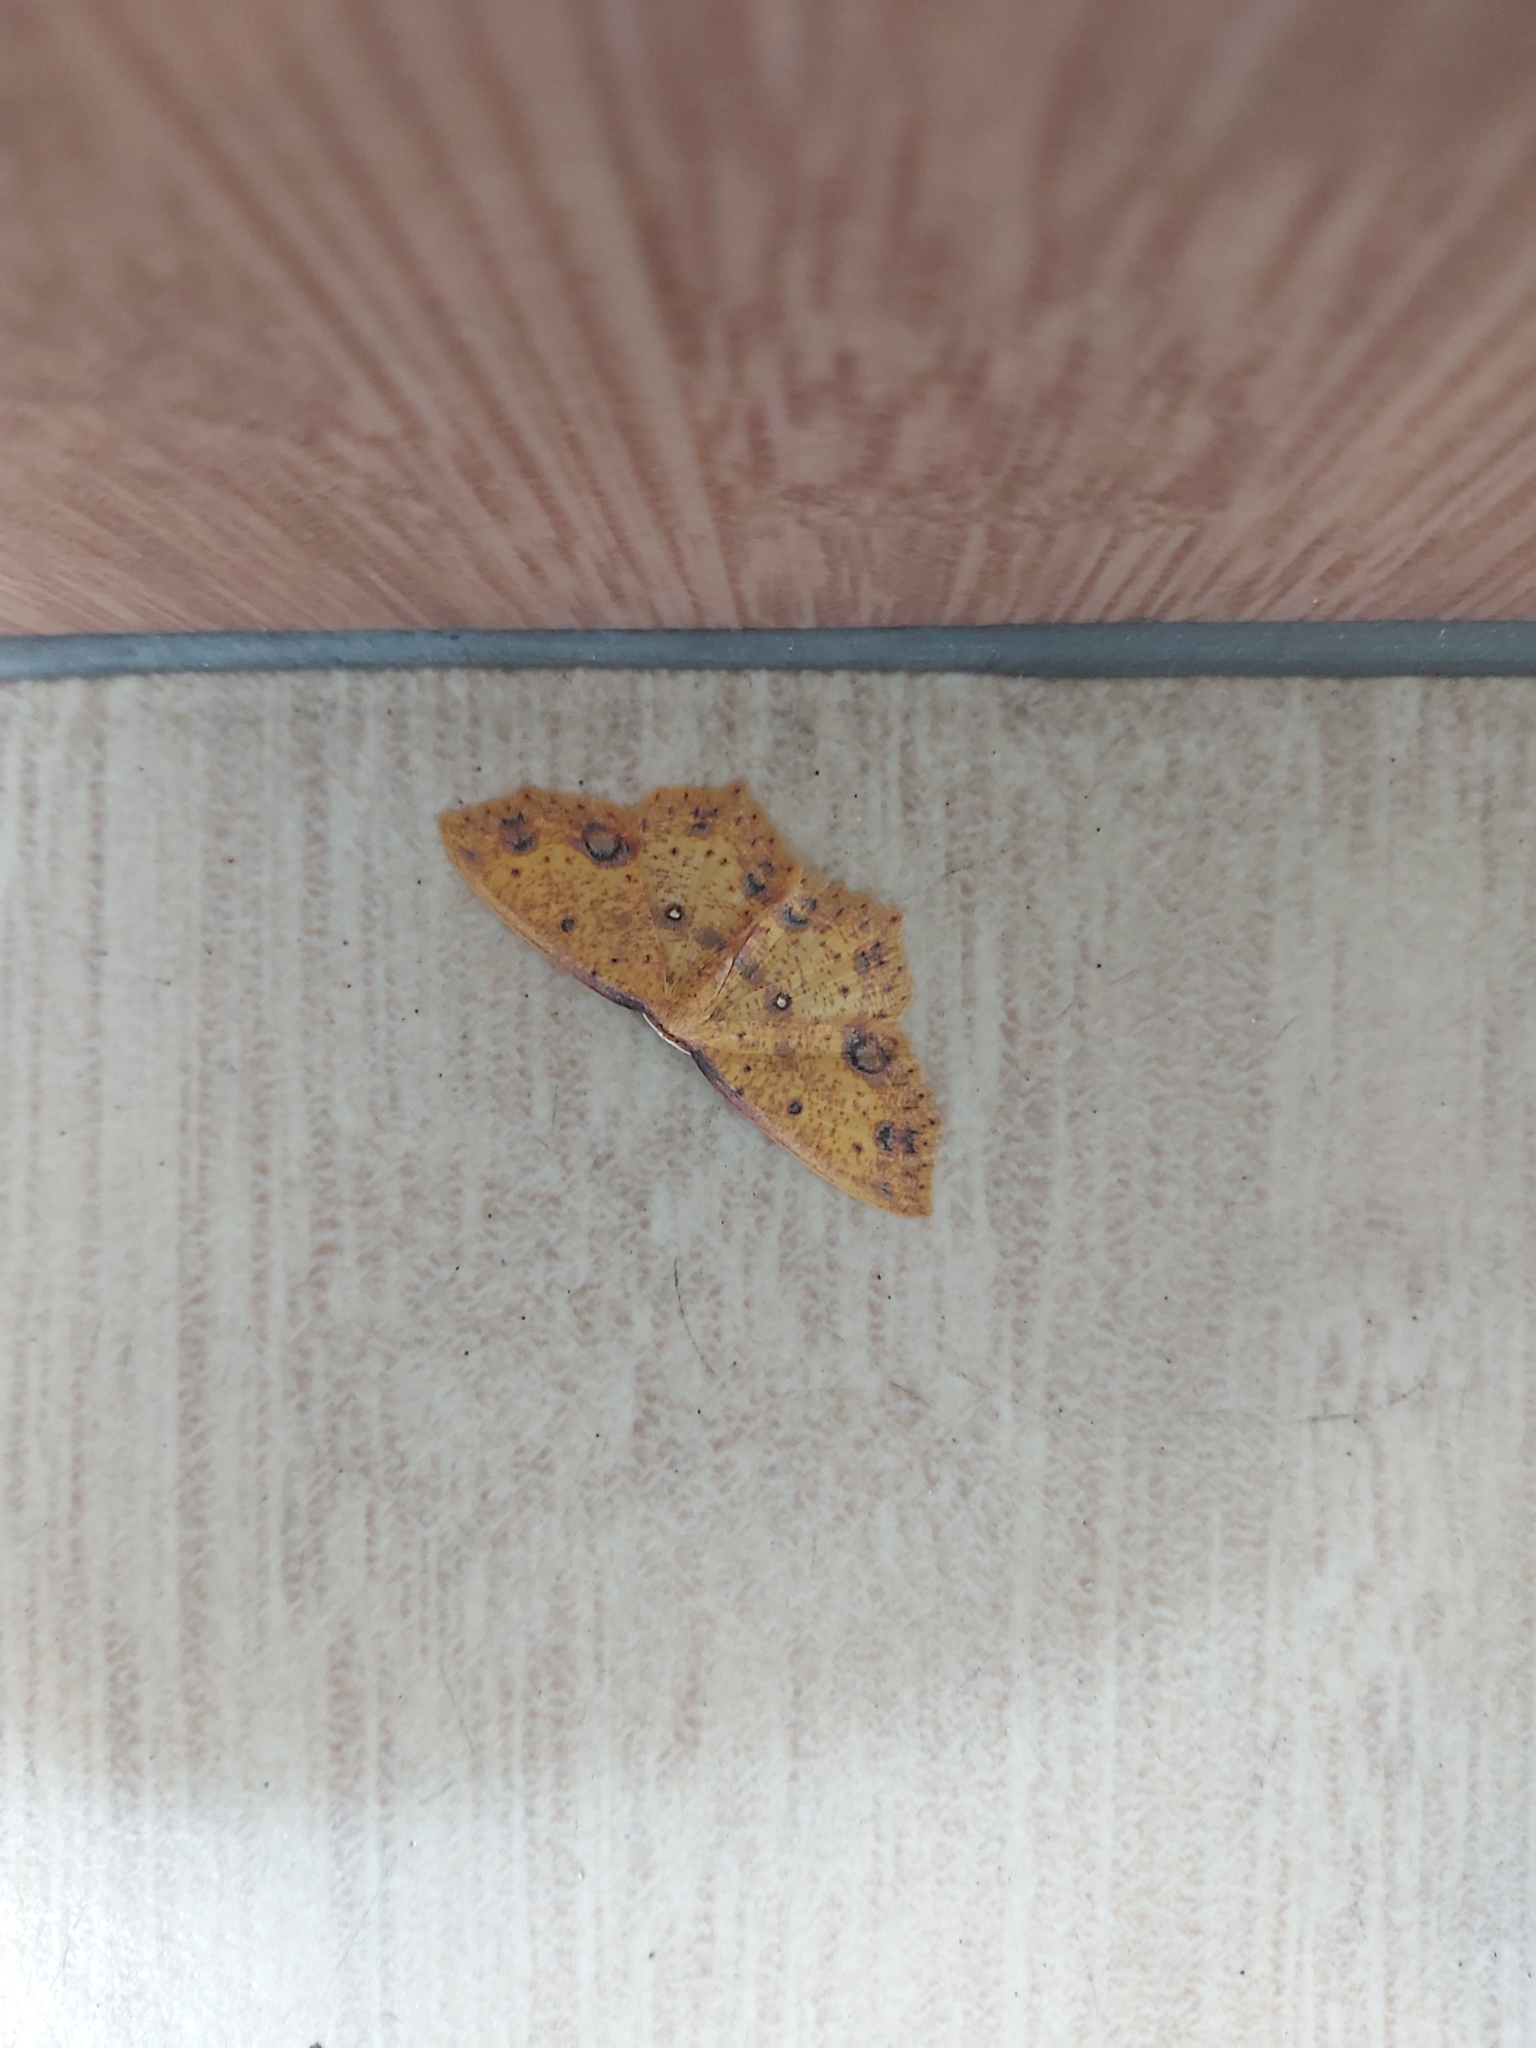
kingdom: Animalia
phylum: Arthropoda
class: Insecta
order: Lepidoptera
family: Geometridae
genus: Synegiodes
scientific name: Synegiodes histrionaria
